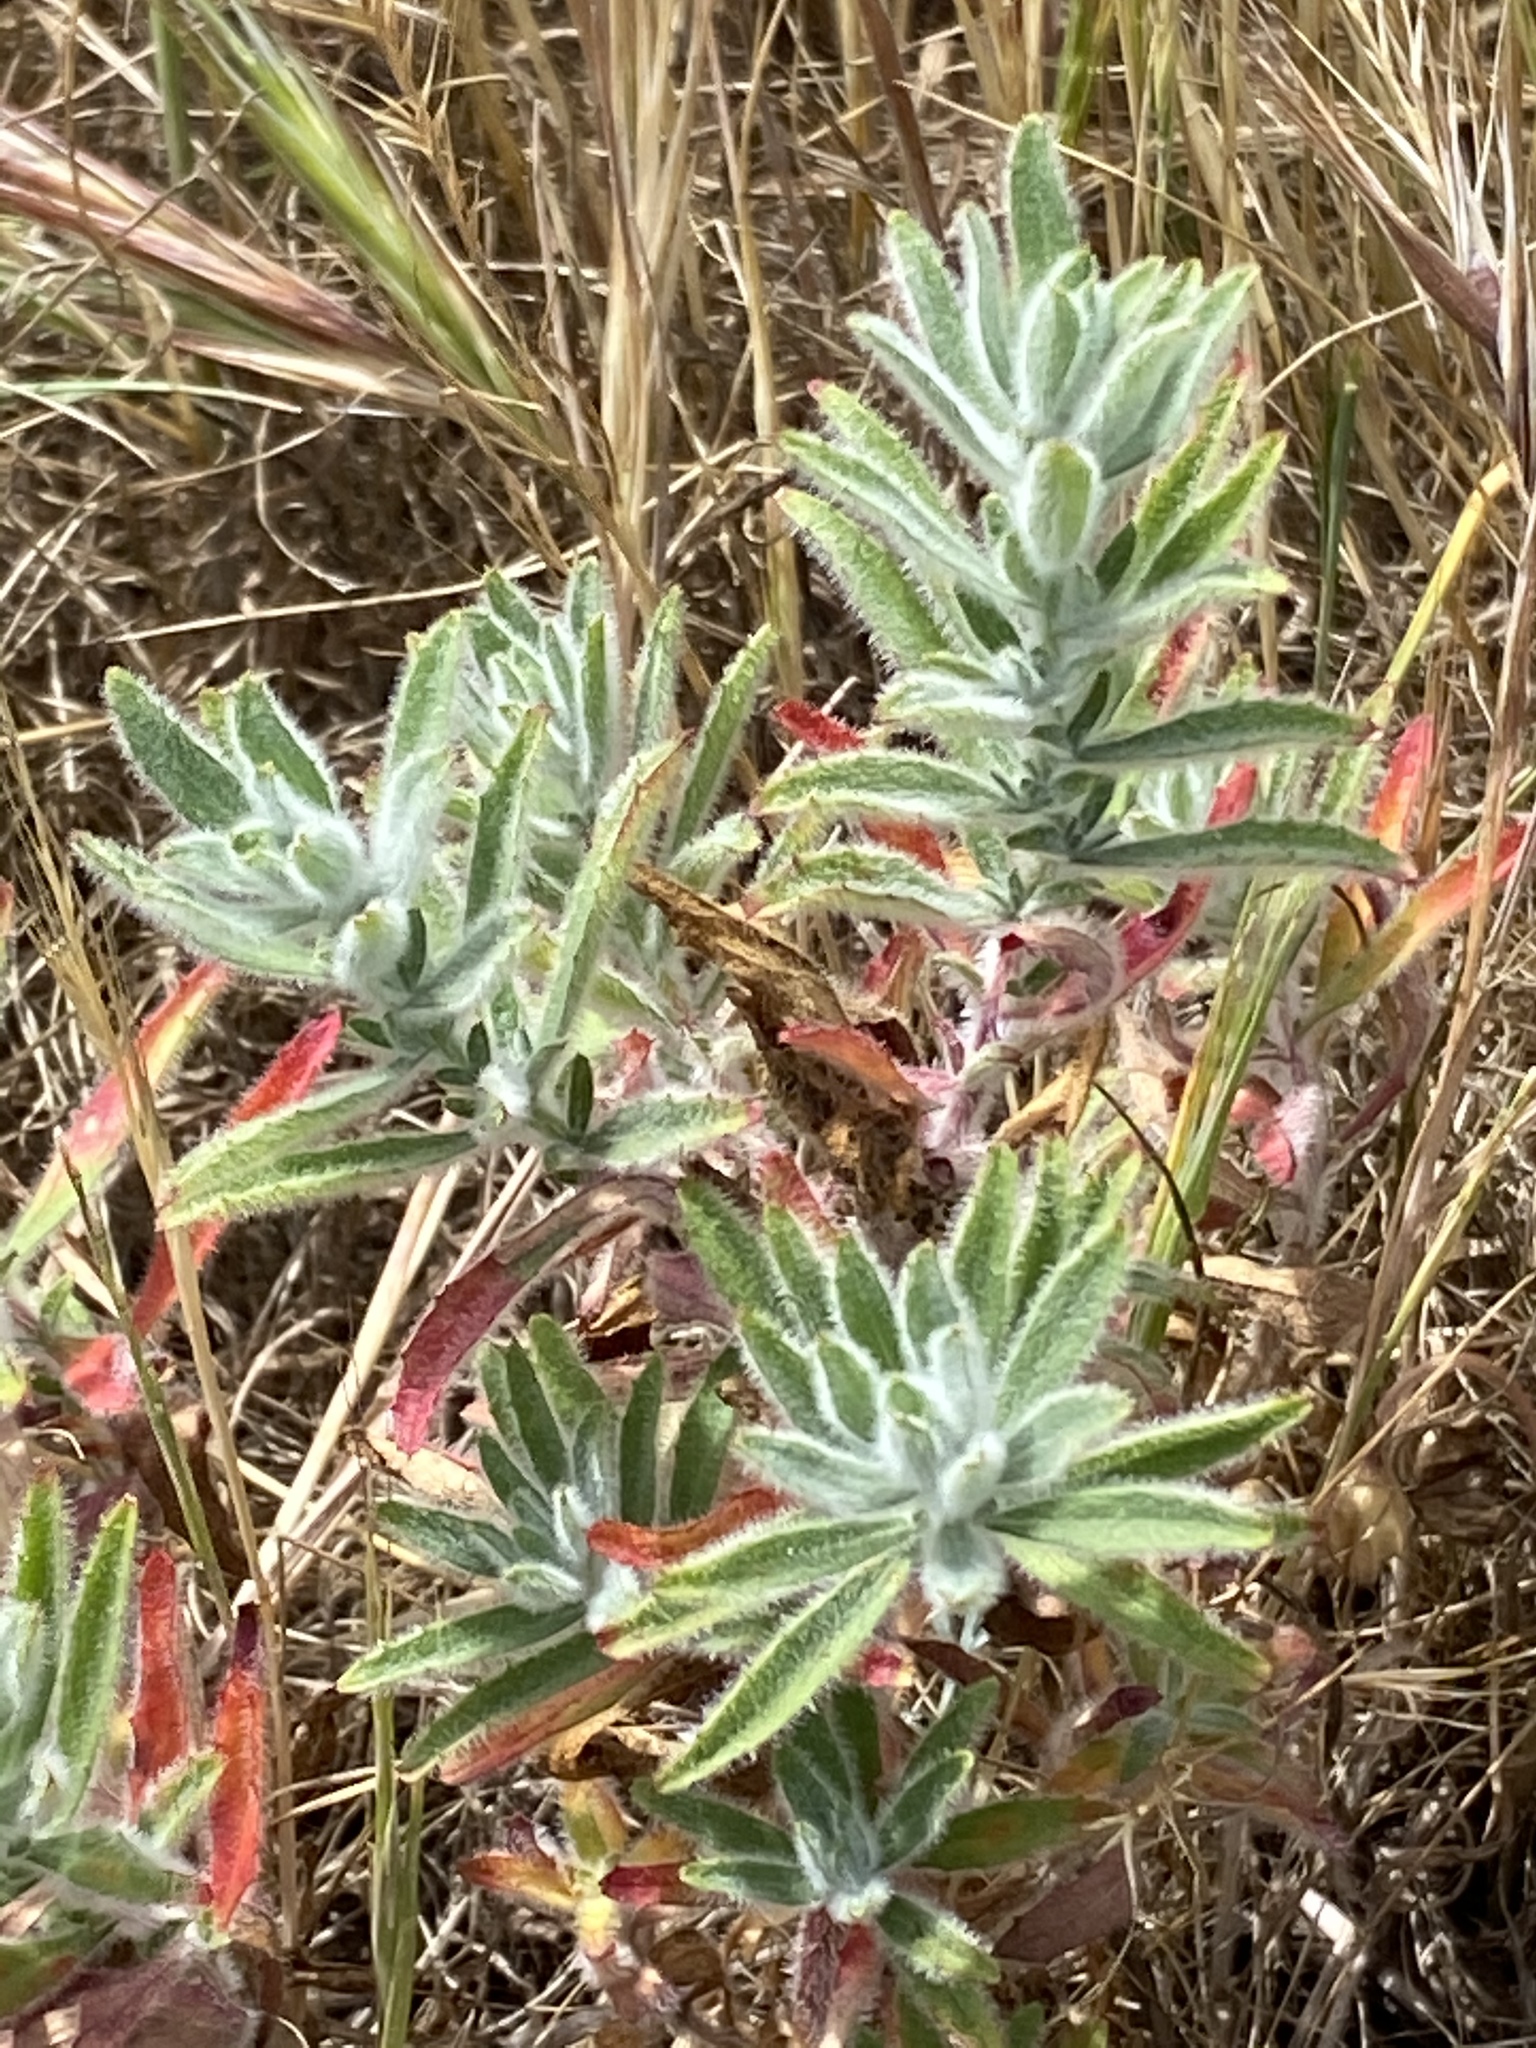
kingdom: Plantae
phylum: Tracheophyta
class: Magnoliopsida
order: Myrtales
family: Onagraceae
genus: Epilobium
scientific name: Epilobium canum
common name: California-fuchsia
